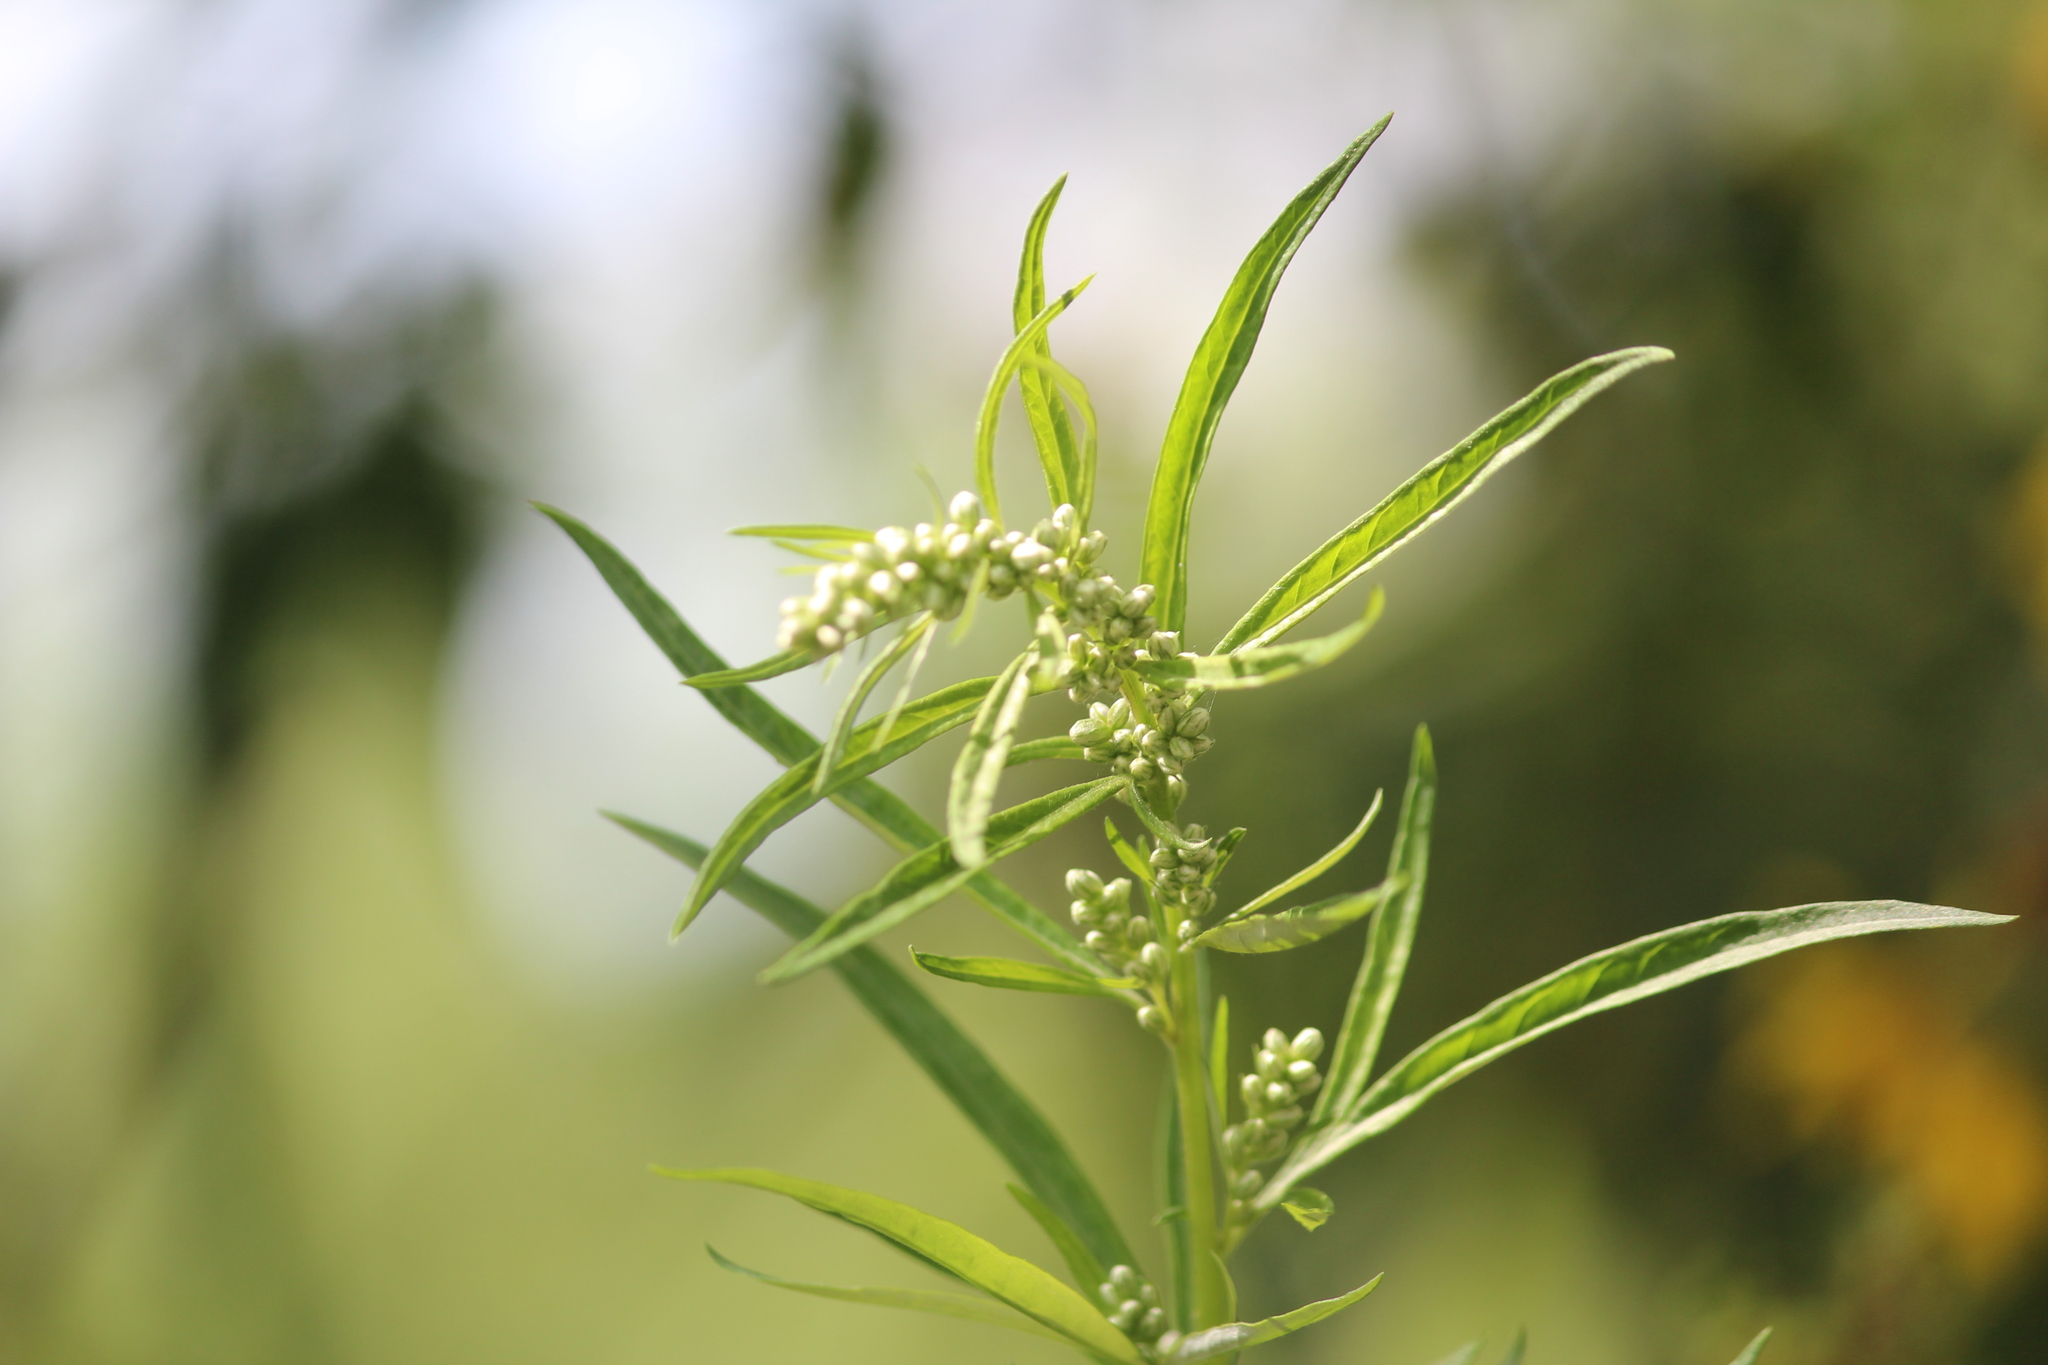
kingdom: Plantae
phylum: Tracheophyta
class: Magnoliopsida
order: Asterales
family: Asteraceae
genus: Artemisia
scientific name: Artemisia vulgaris
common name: Mugwort
